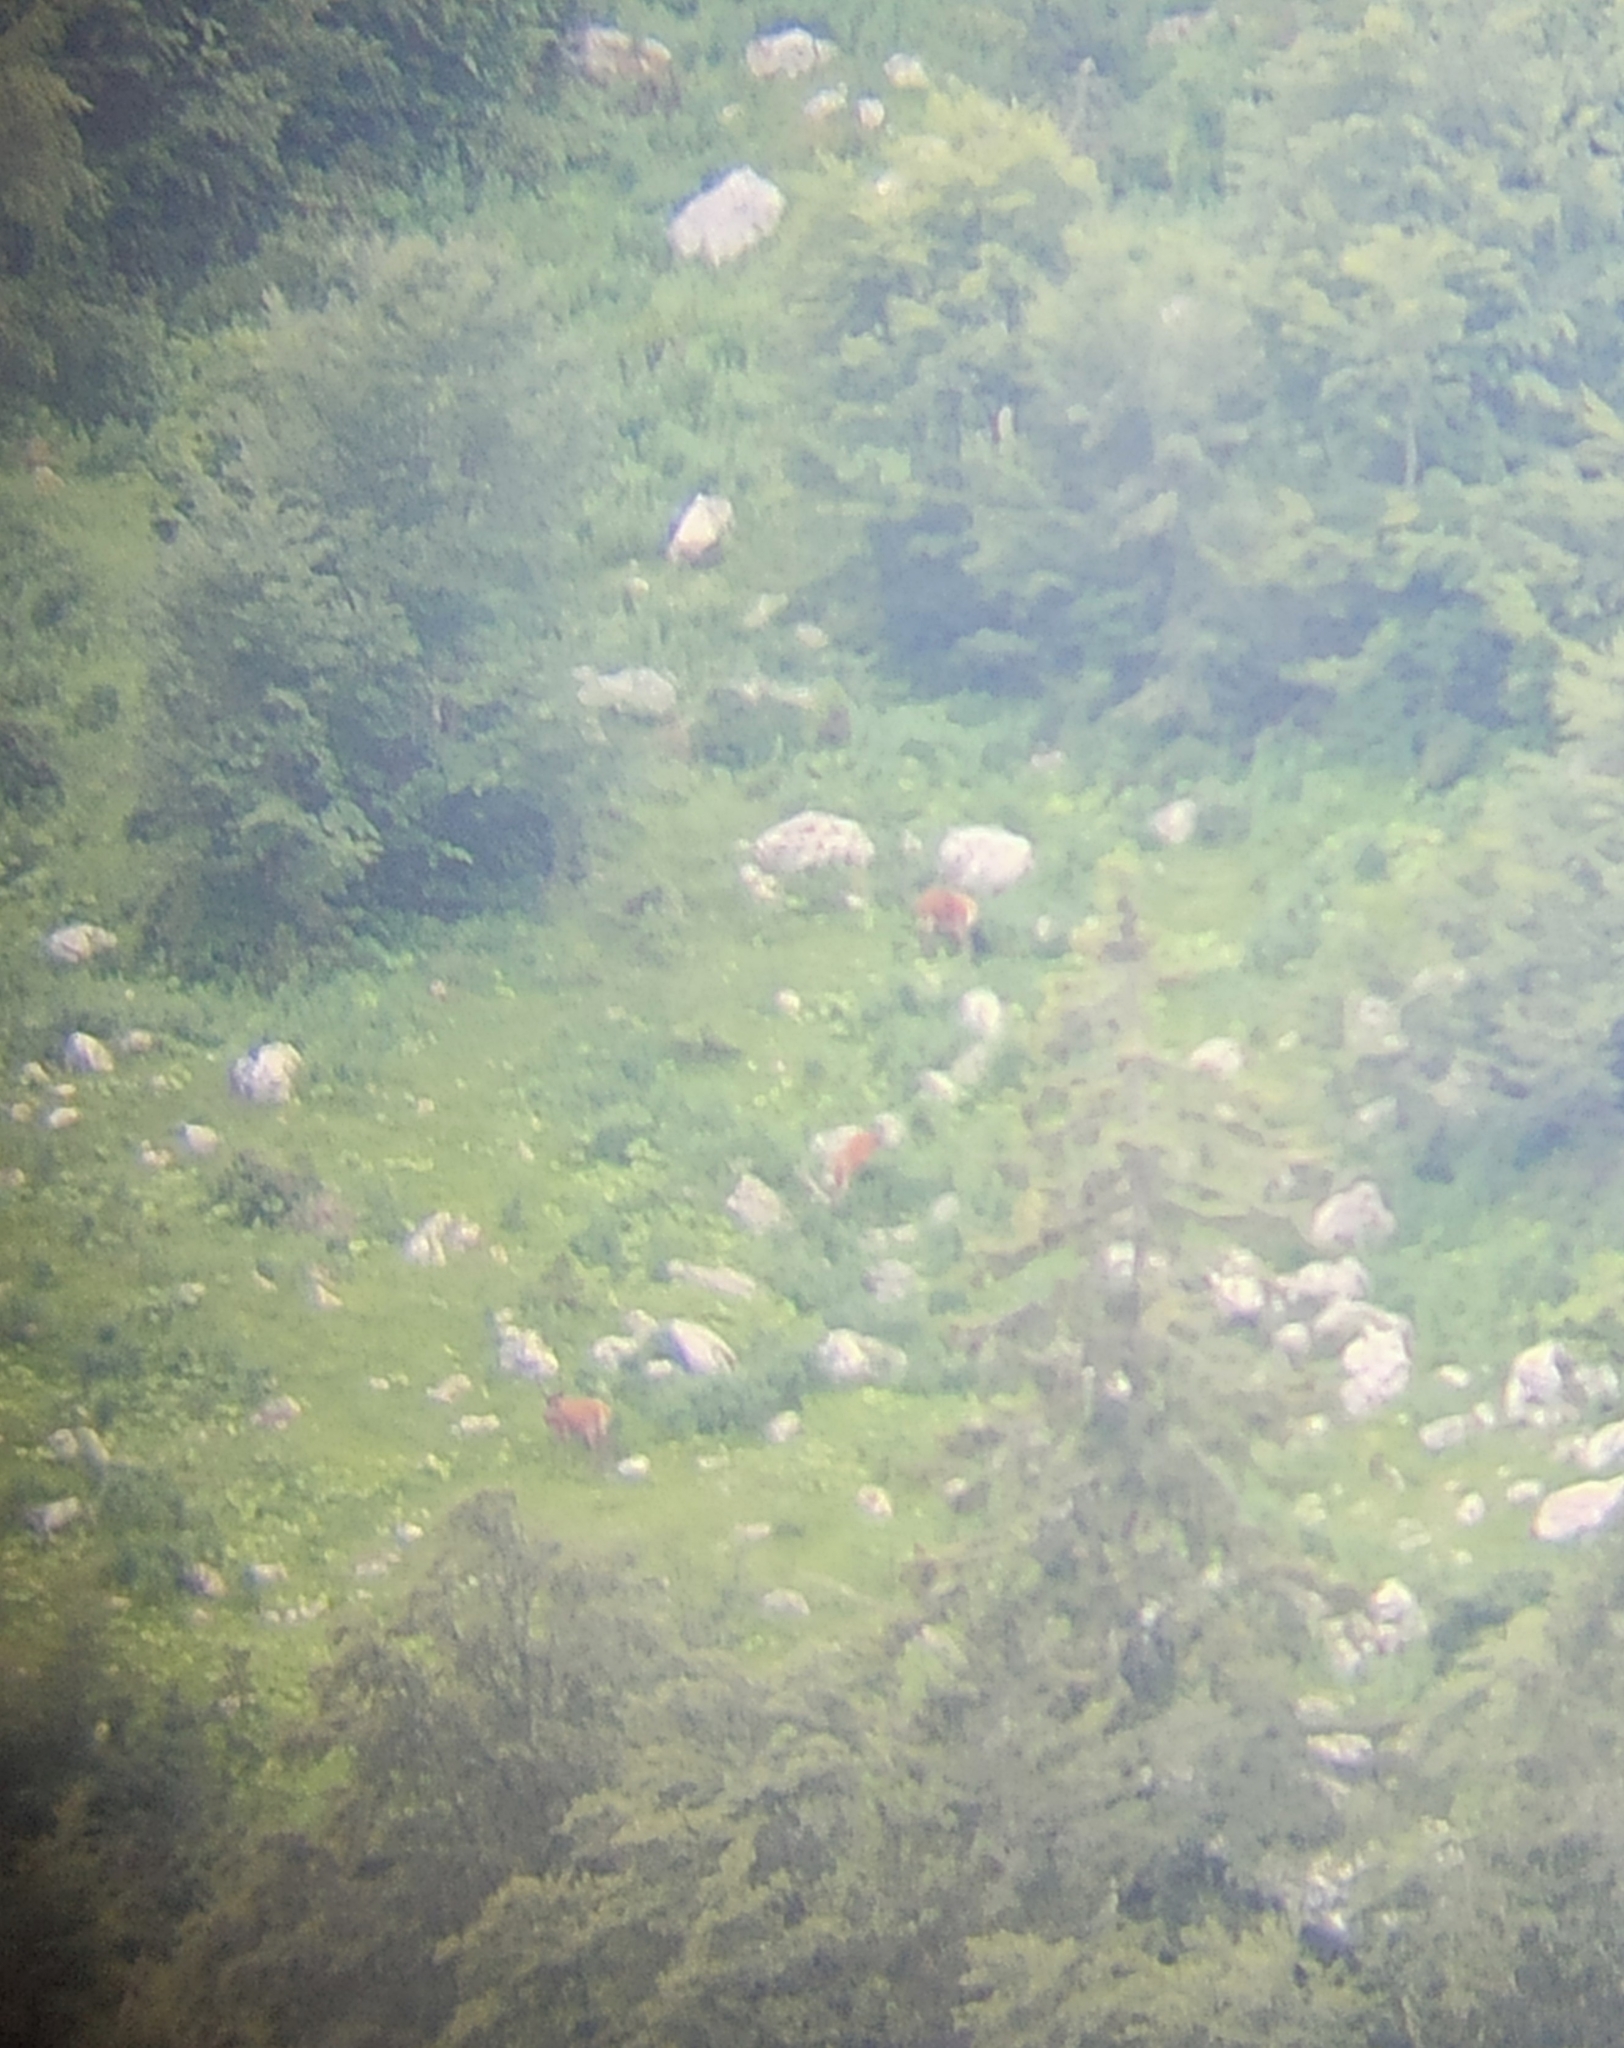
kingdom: Animalia
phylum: Chordata
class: Mammalia
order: Artiodactyla
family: Cervidae
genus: Cervus
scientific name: Cervus elaphus
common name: Red deer
